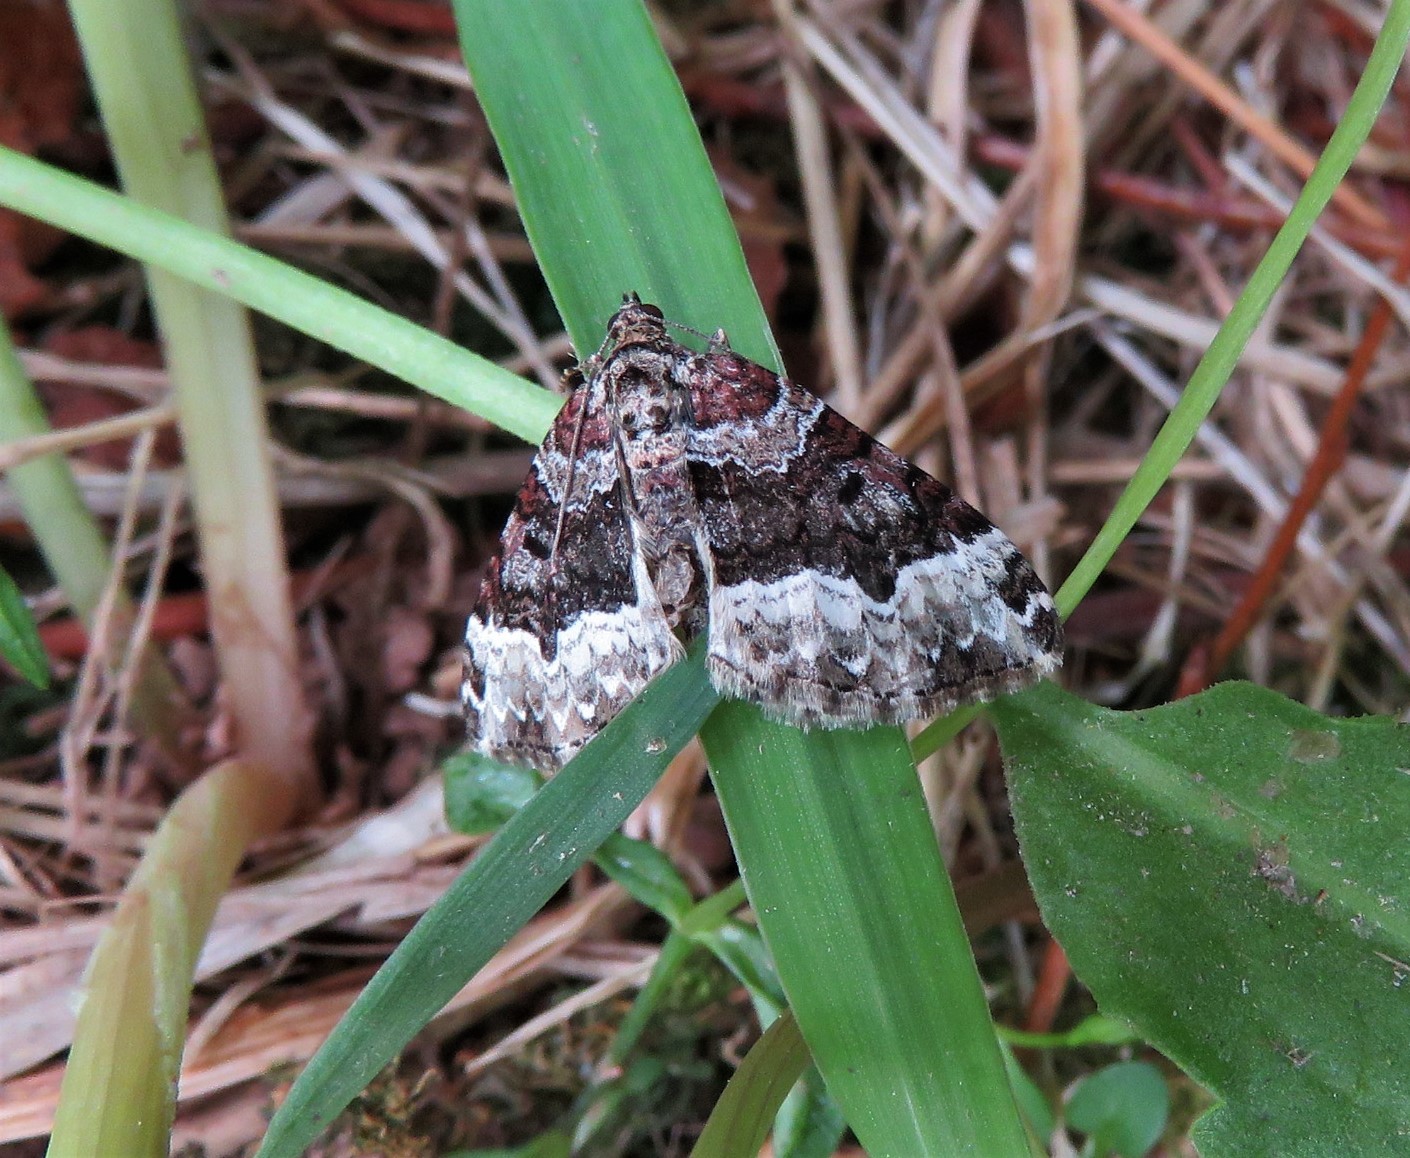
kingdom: Animalia
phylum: Arthropoda
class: Insecta
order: Lepidoptera
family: Geometridae
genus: Euphyia
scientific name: Euphyia intermediata
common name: Sharp-angled carpet
